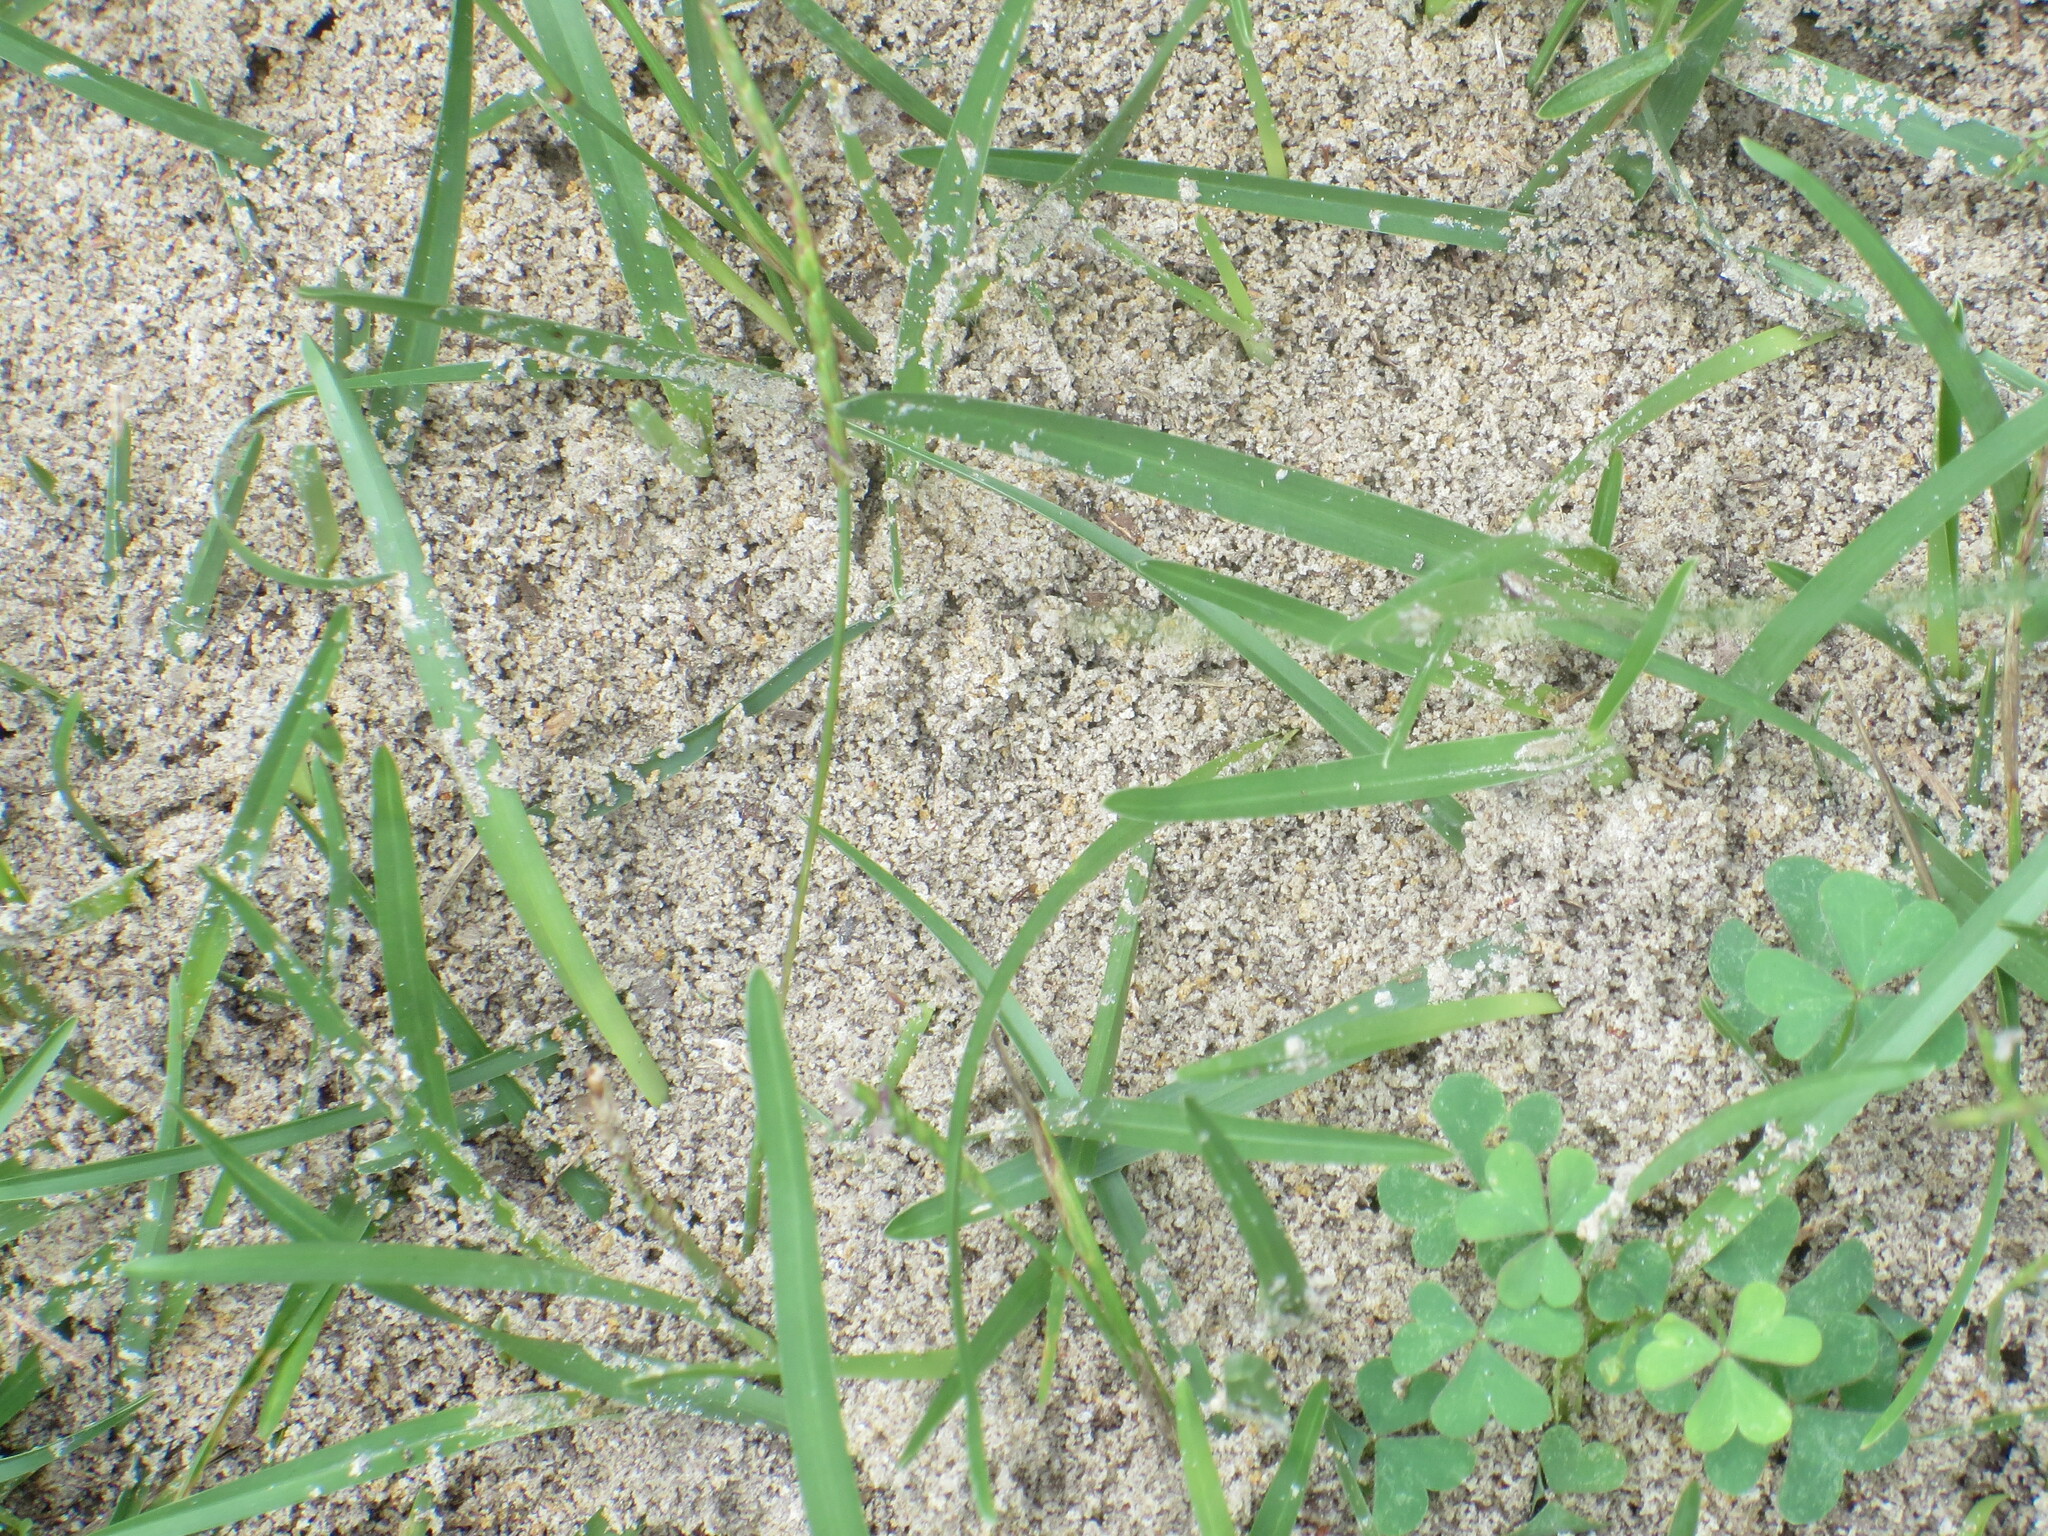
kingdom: Animalia
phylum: Arthropoda
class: Insecta
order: Hymenoptera
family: Formicidae
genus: Solenopsis
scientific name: Solenopsis invicta
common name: Red imported fire ant
